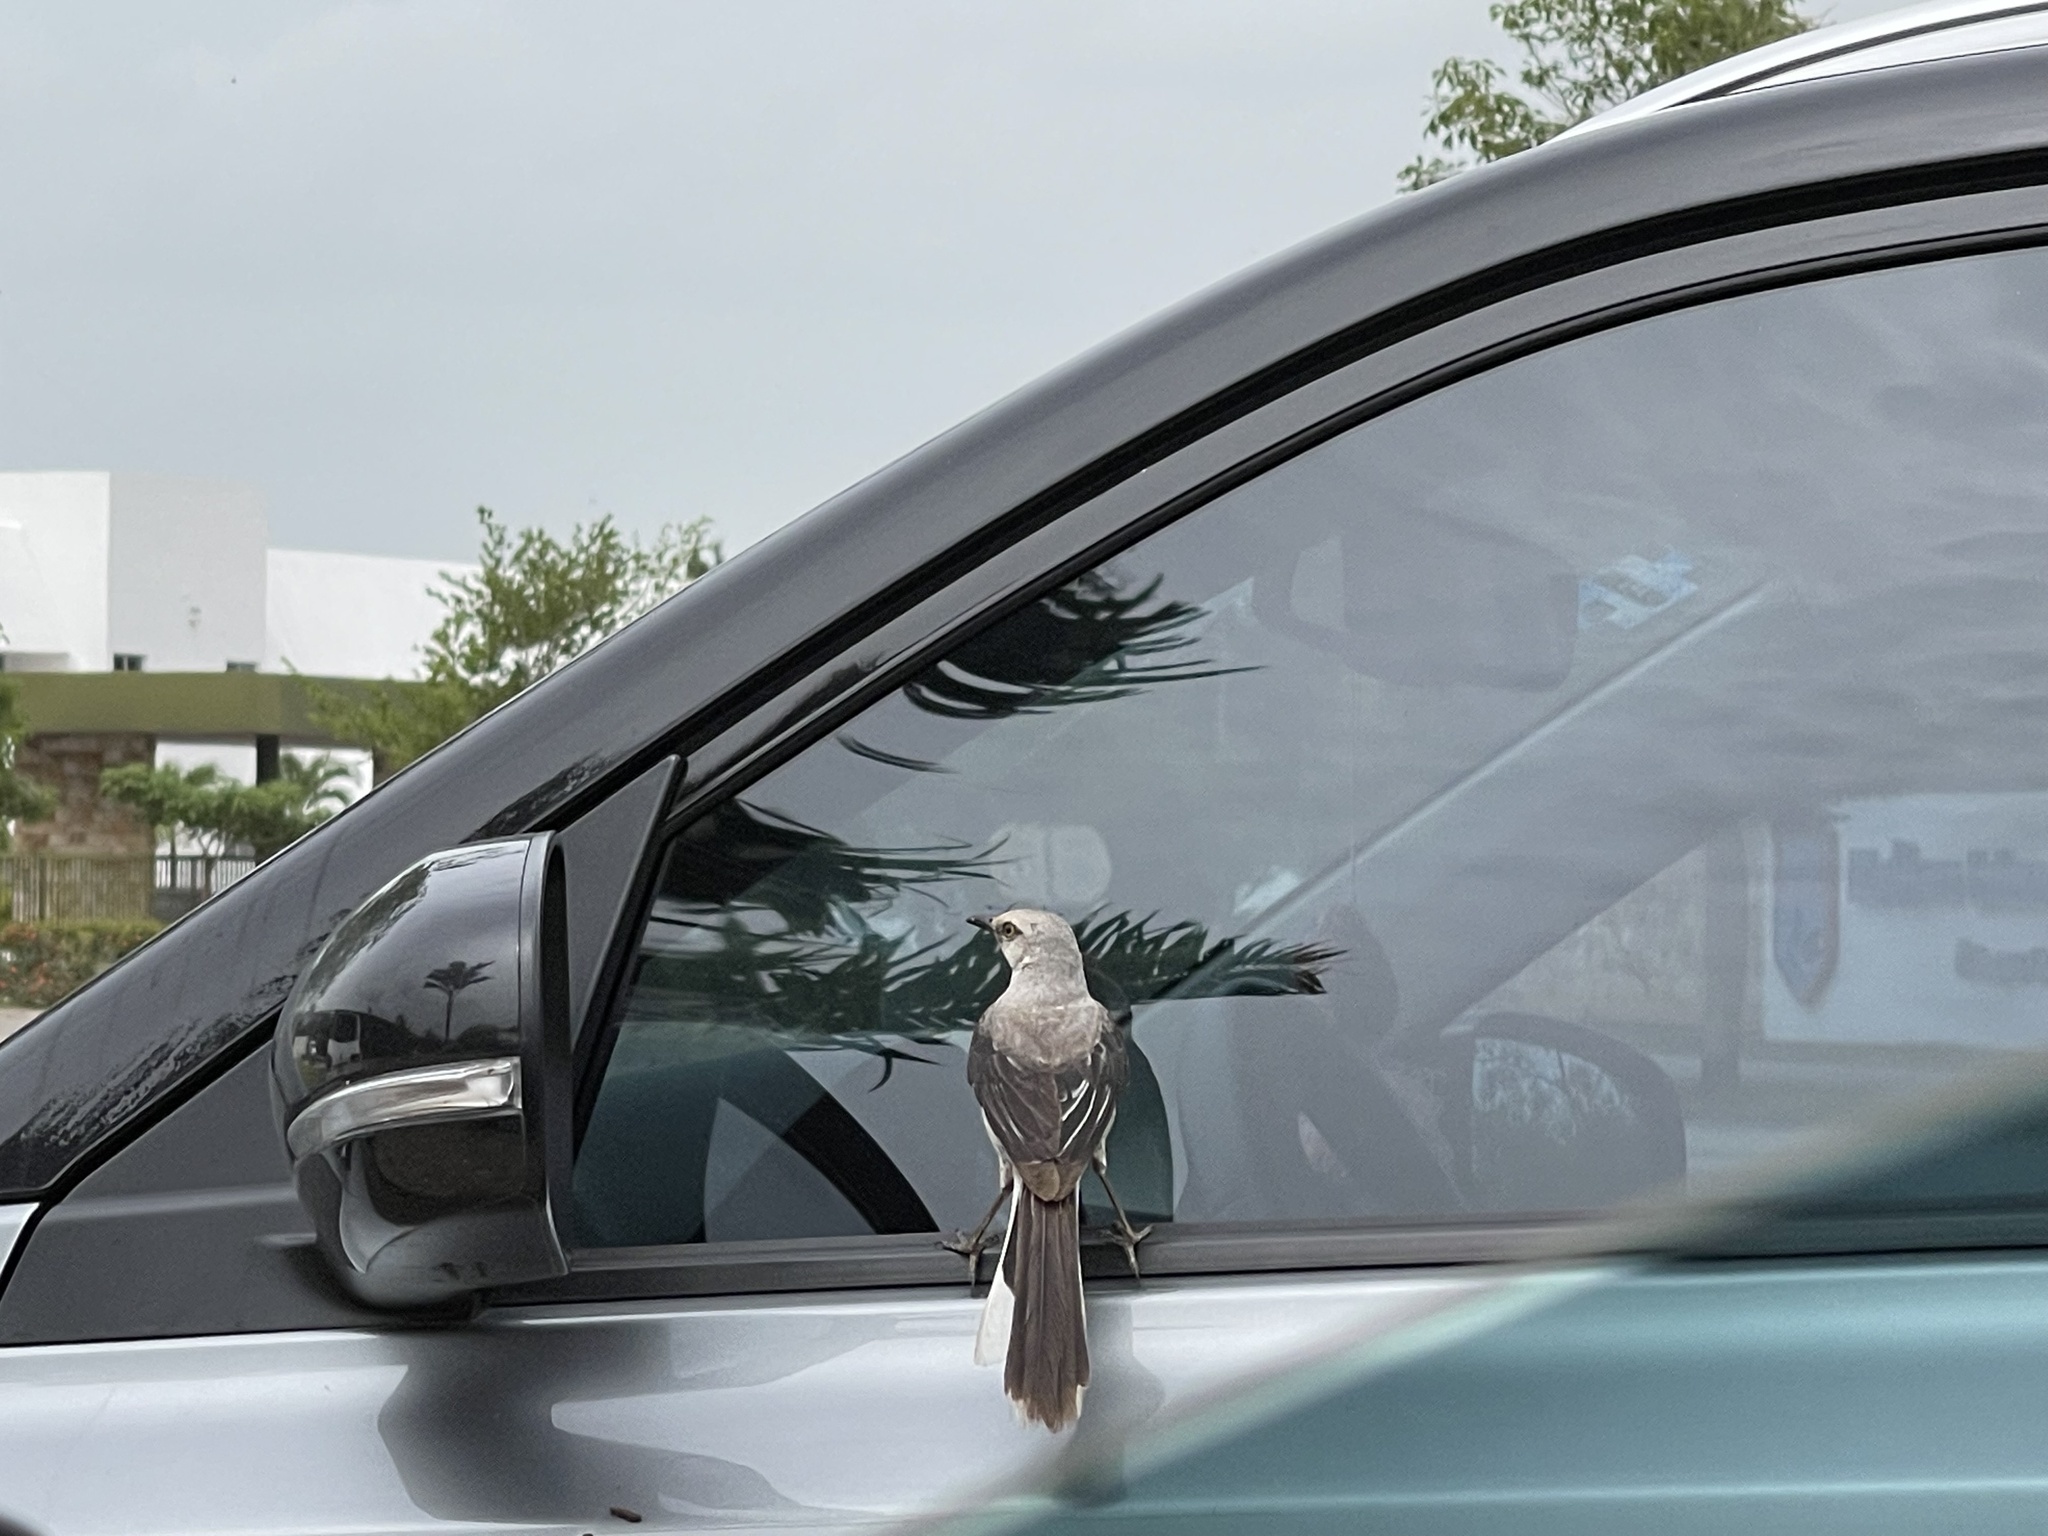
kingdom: Animalia
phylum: Chordata
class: Aves
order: Passeriformes
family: Mimidae
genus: Mimus
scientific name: Mimus gilvus
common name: Tropical mockingbird
